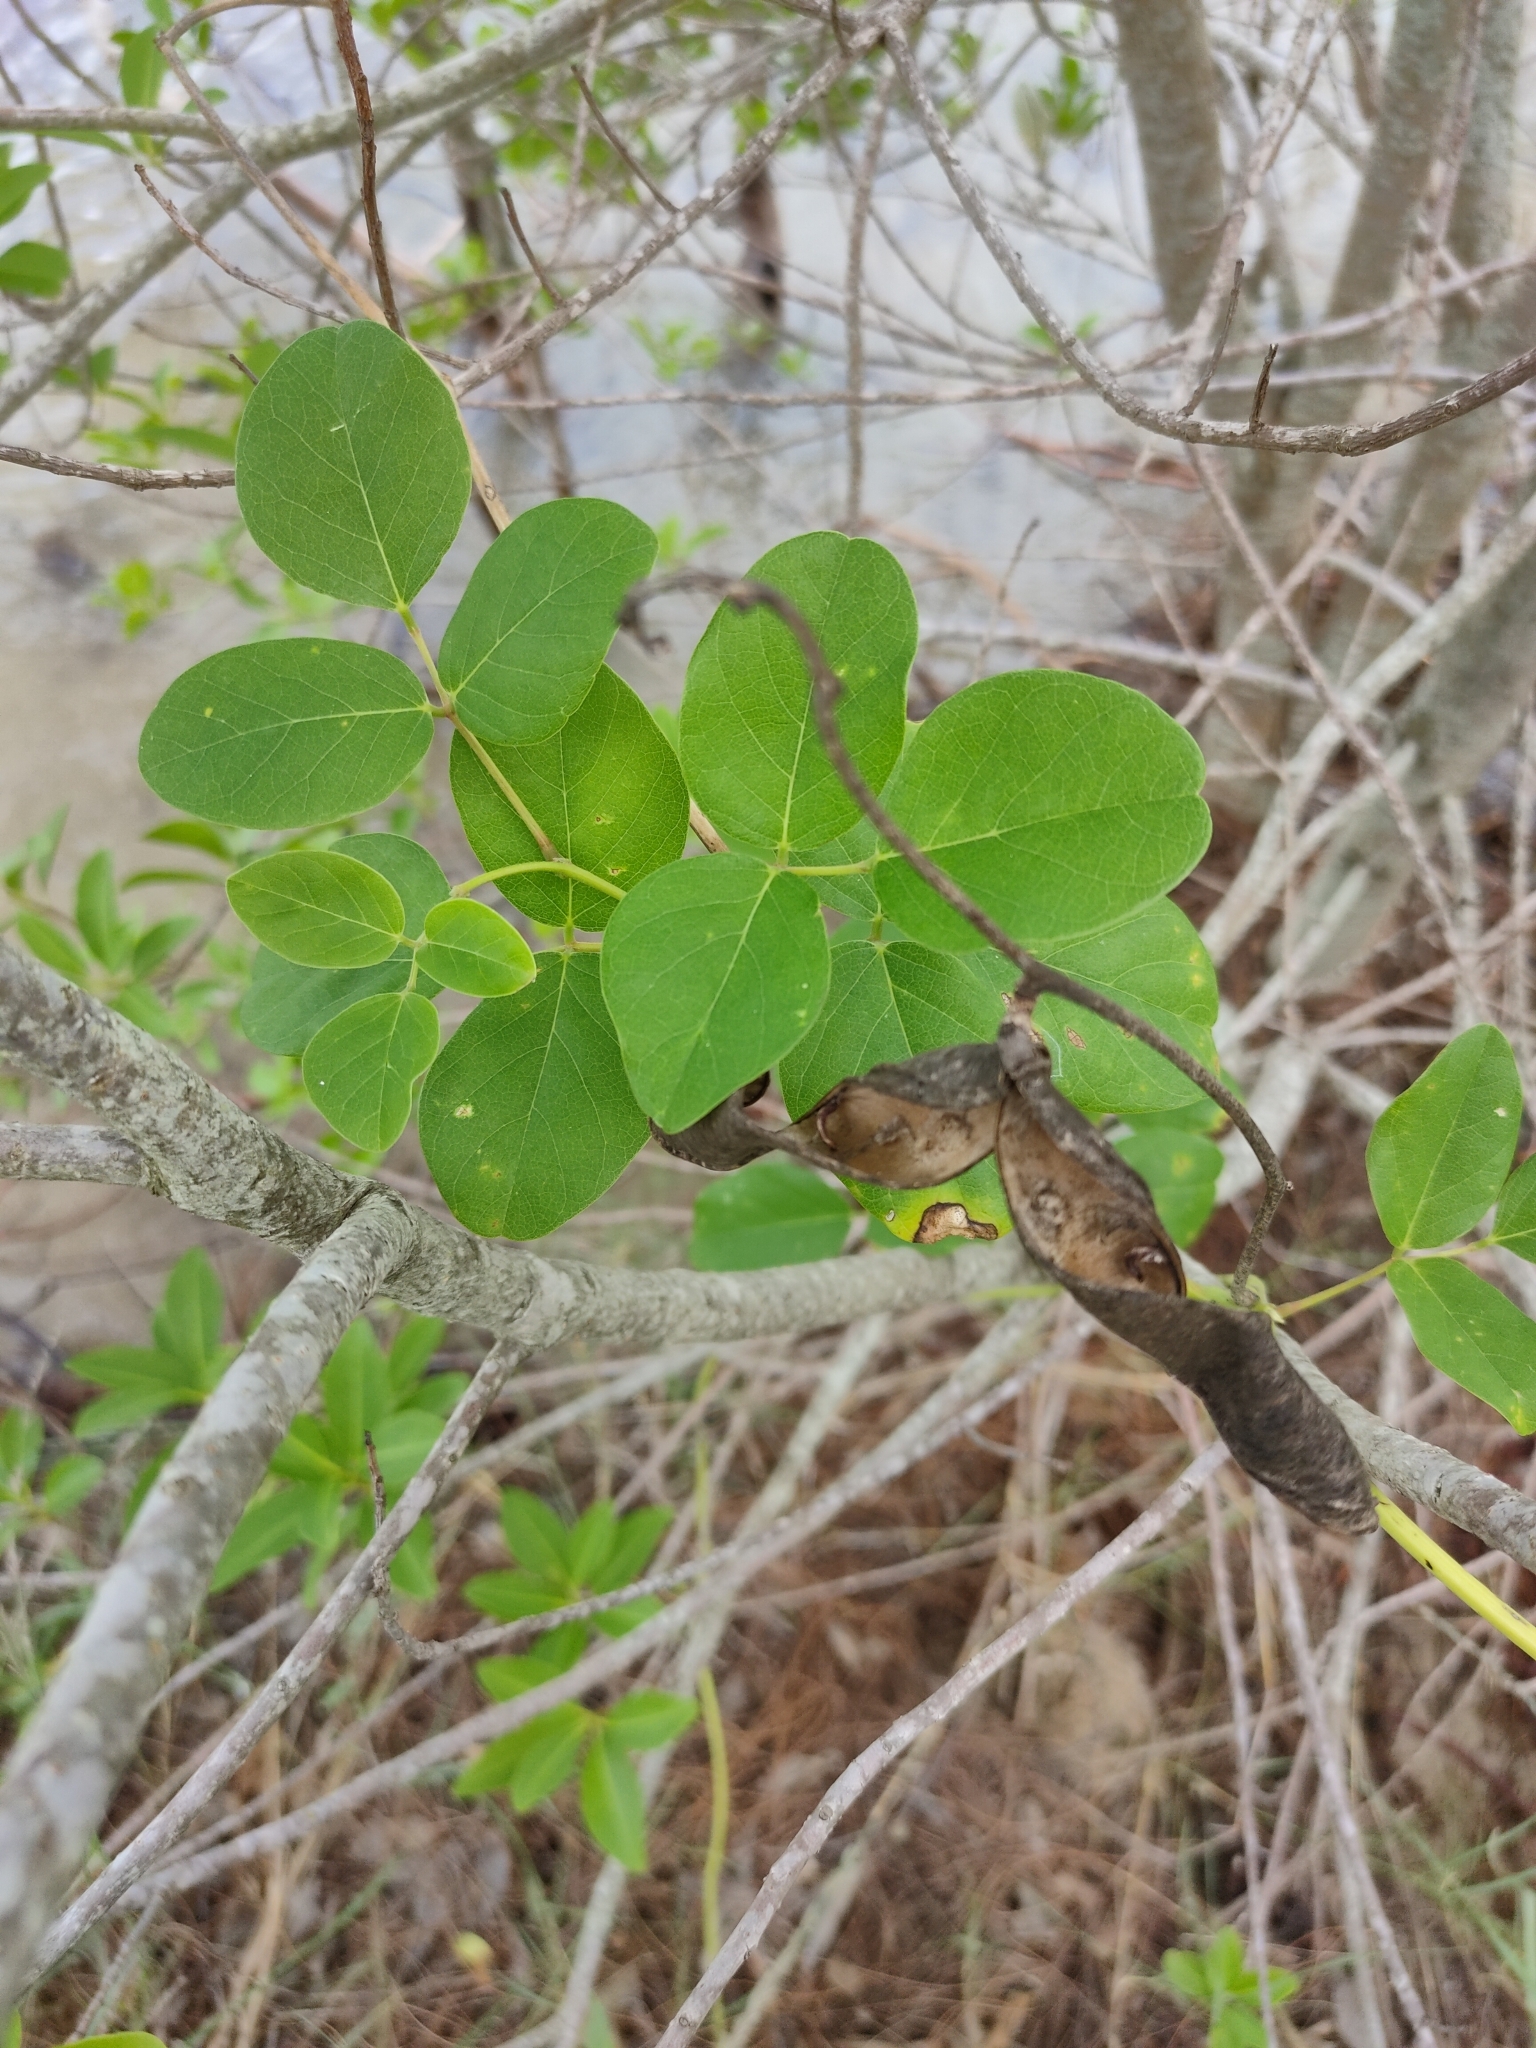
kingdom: Plantae
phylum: Tracheophyta
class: Magnoliopsida
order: Fabales
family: Fabaceae
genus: Canavalia
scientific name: Canavalia rosea
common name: Beach-bean
